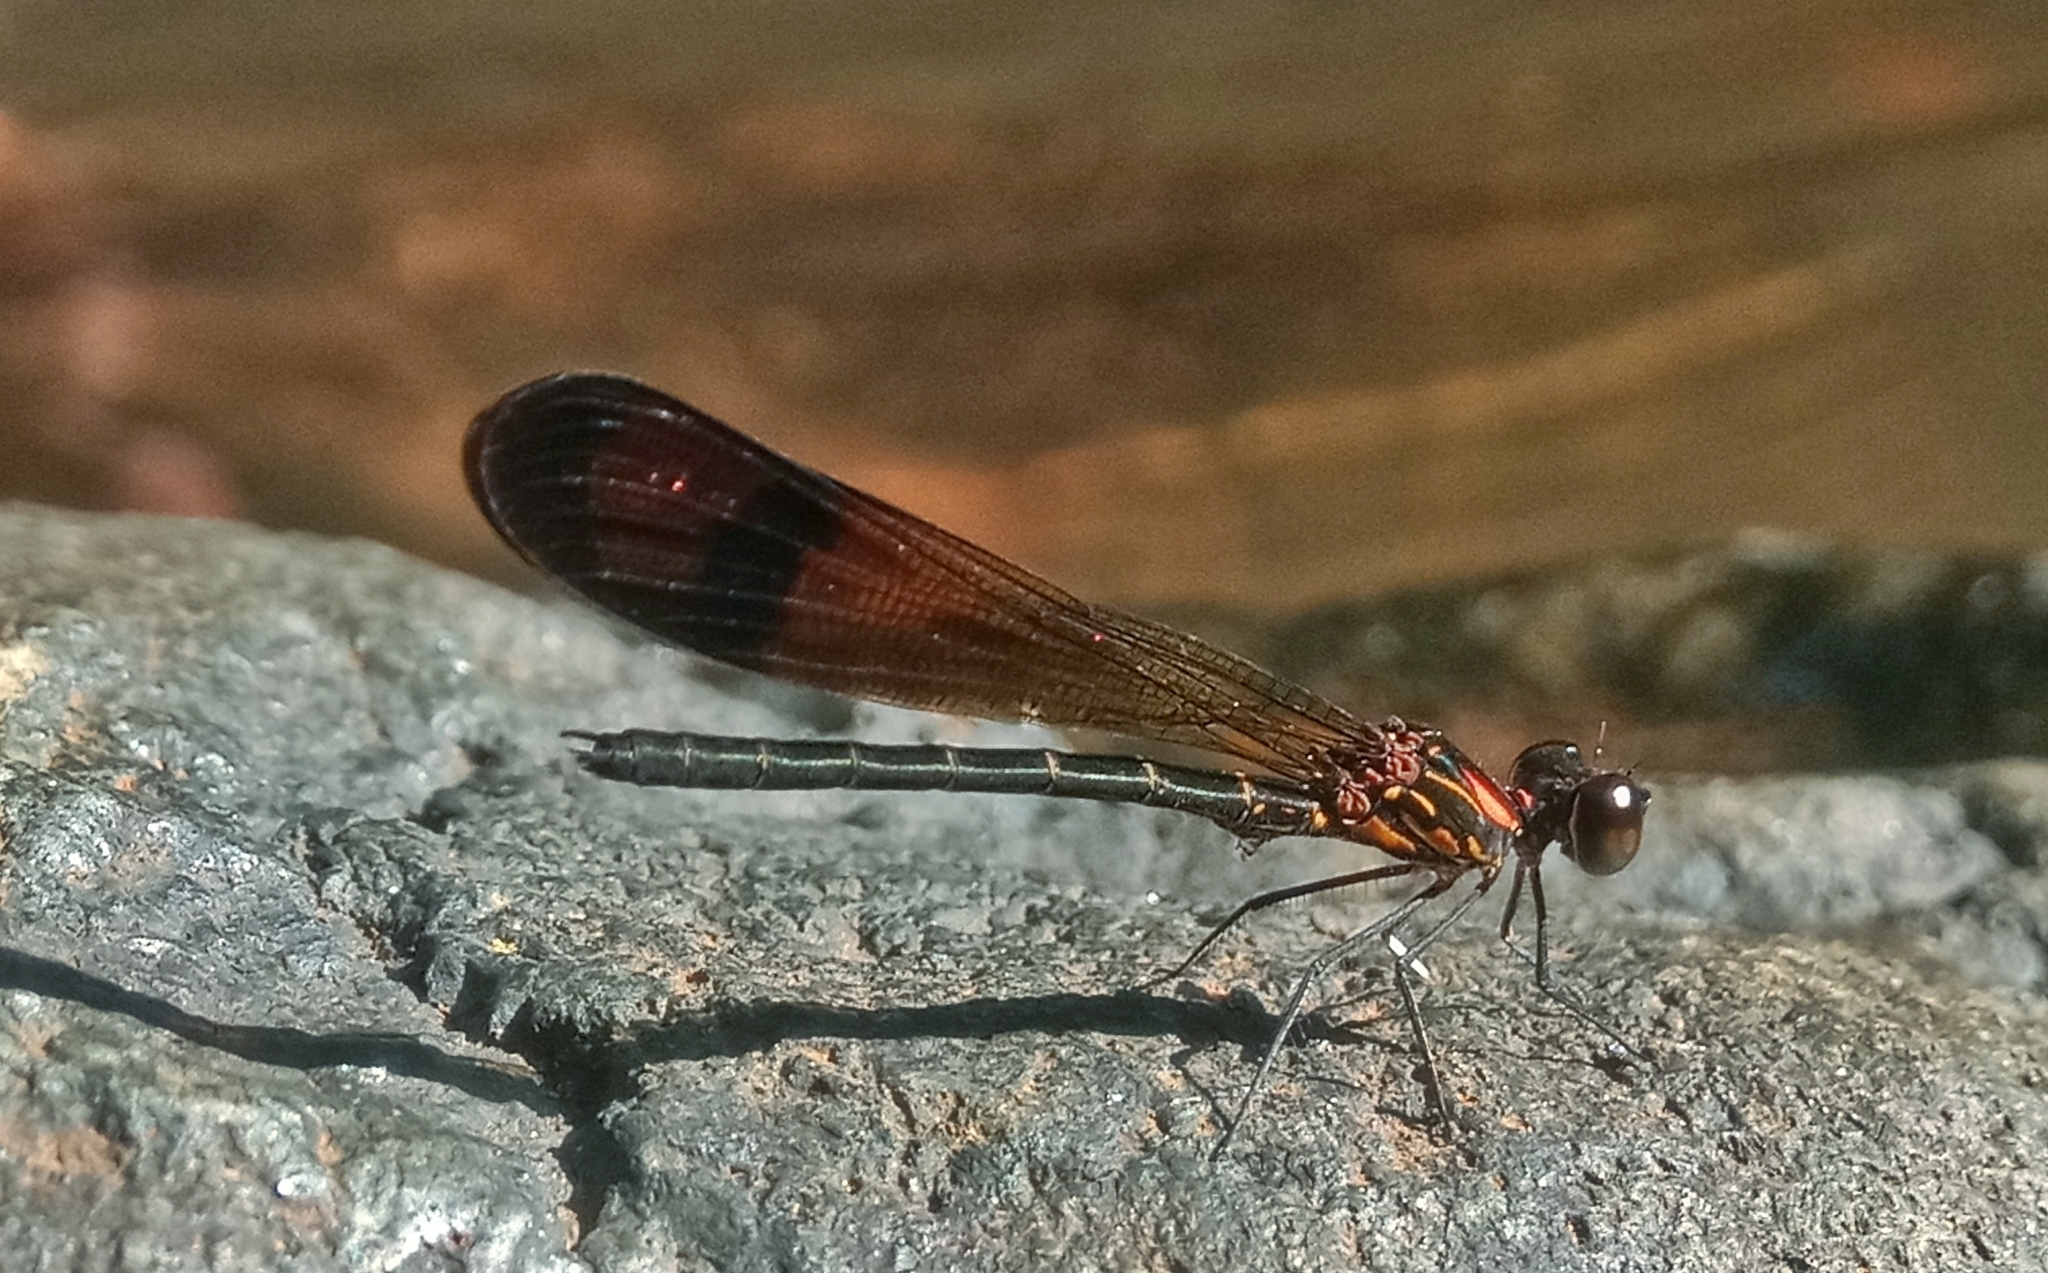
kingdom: Animalia
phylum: Arthropoda
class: Insecta
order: Odonata
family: Chlorocyphidae
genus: Heliocypha
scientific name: Heliocypha bisignata
